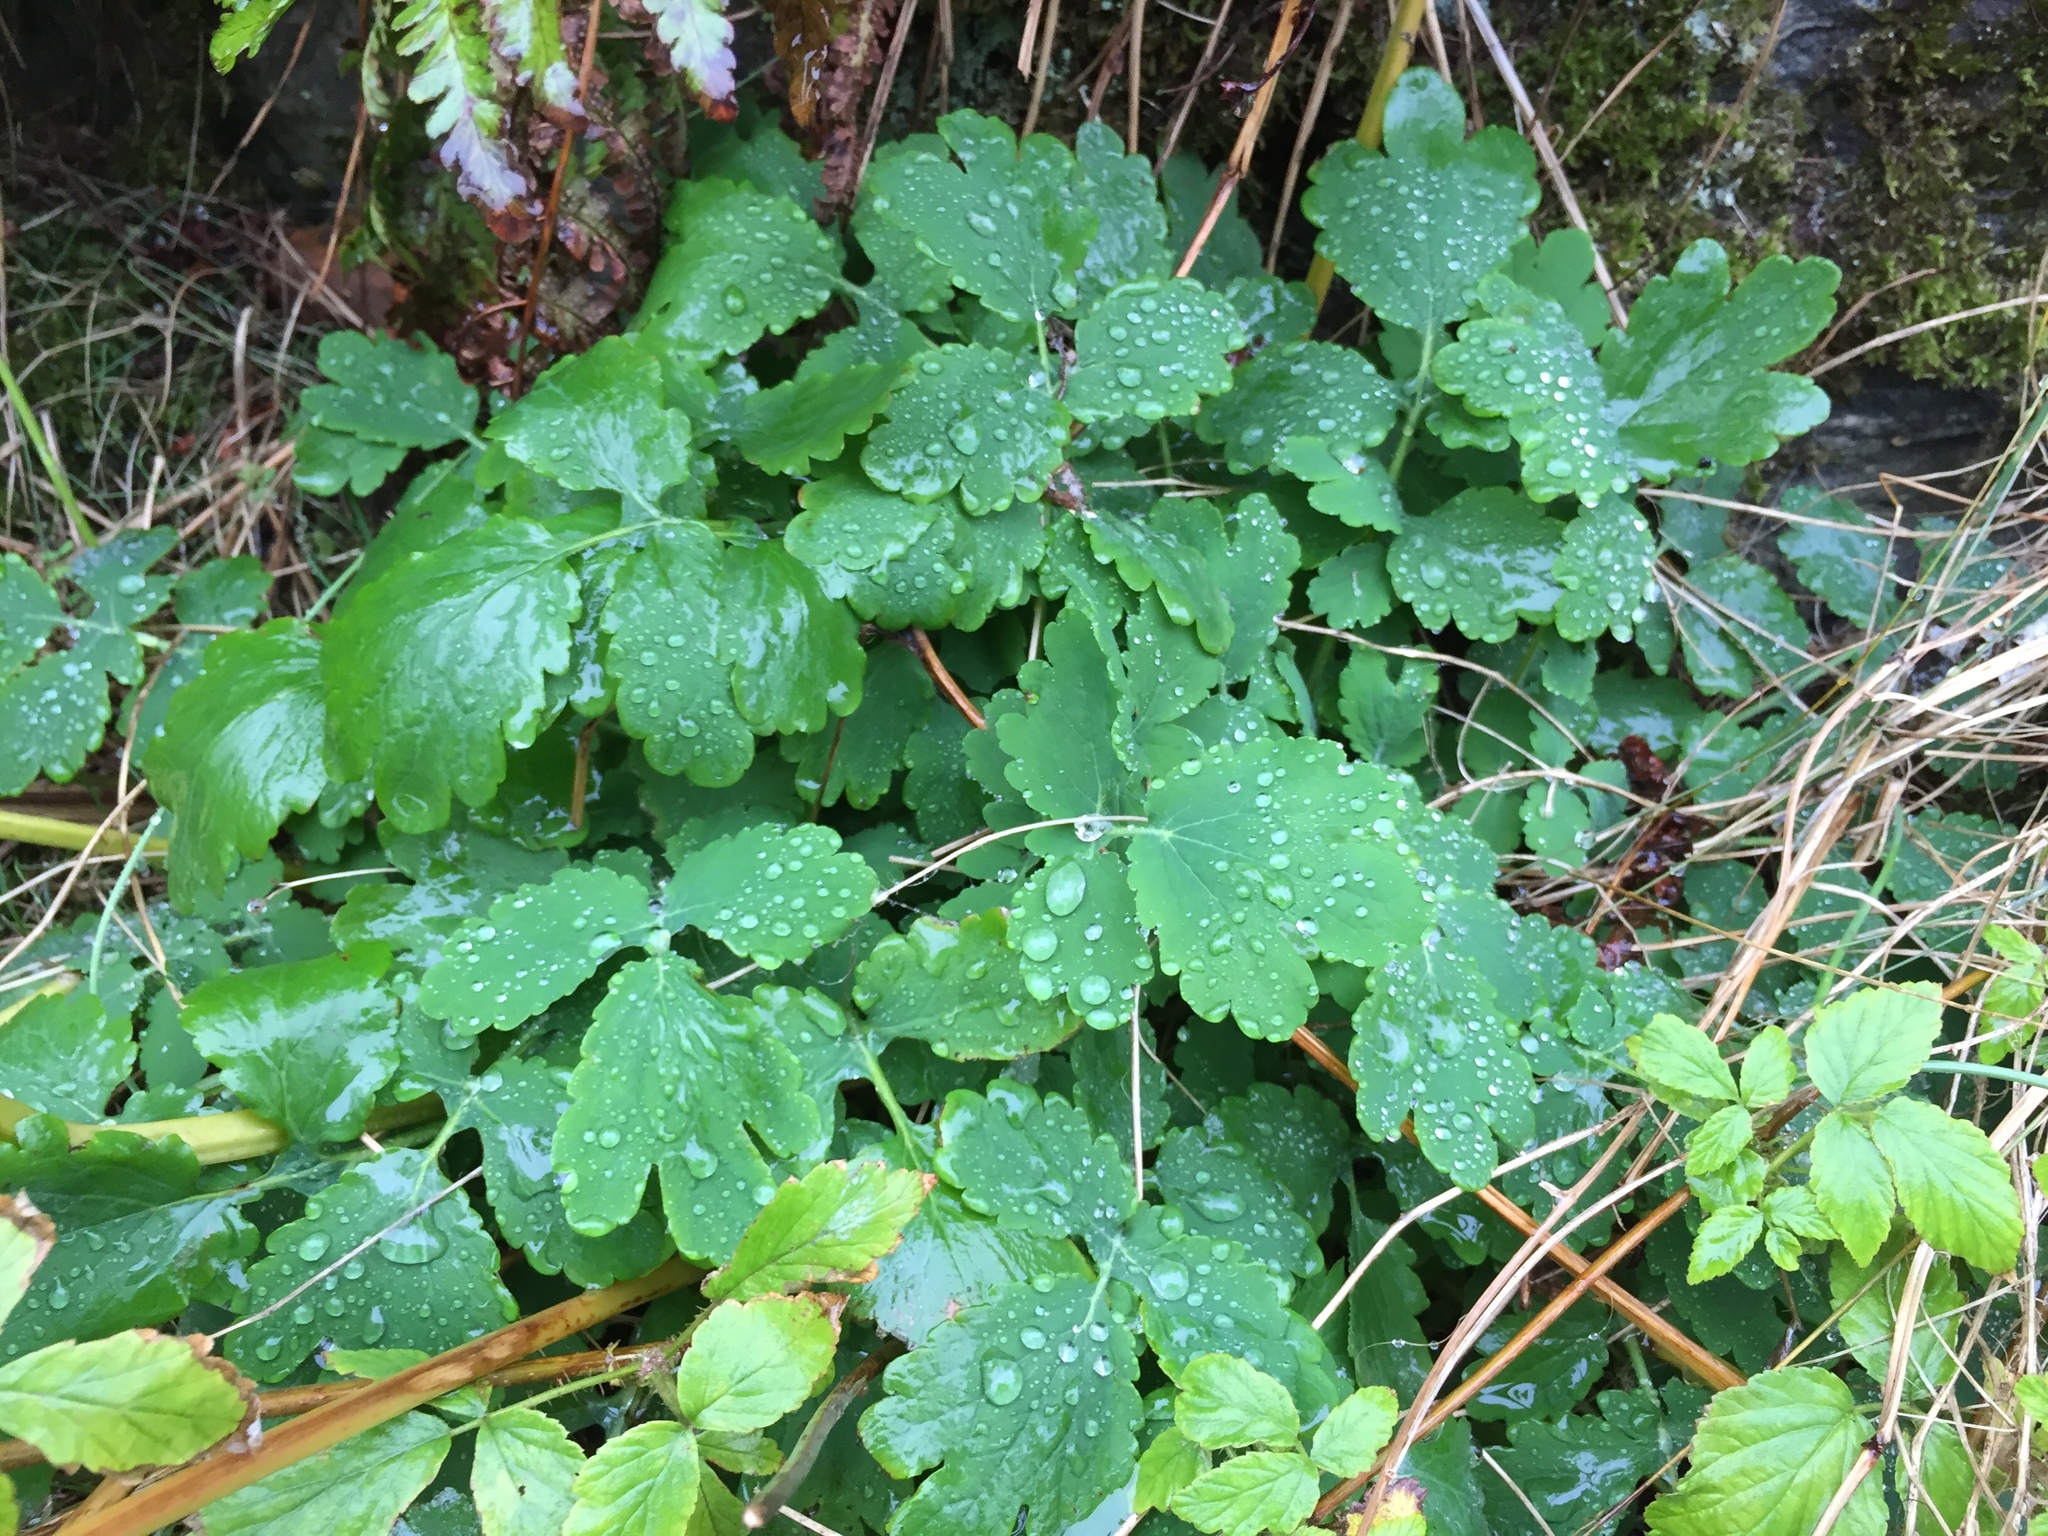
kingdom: Plantae
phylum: Tracheophyta
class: Magnoliopsida
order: Ranunculales
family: Papaveraceae
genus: Chelidonium
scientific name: Chelidonium majus
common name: Greater celandine
